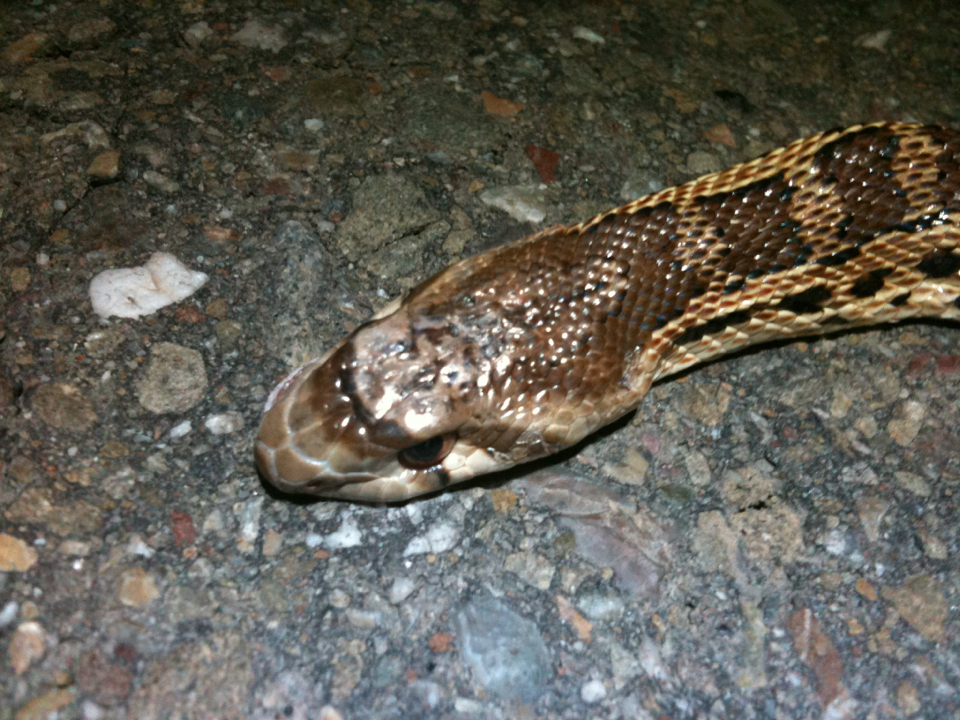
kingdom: Animalia
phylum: Chordata
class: Squamata
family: Colubridae
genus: Pituophis
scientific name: Pituophis catenifer
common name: Gopher snake
